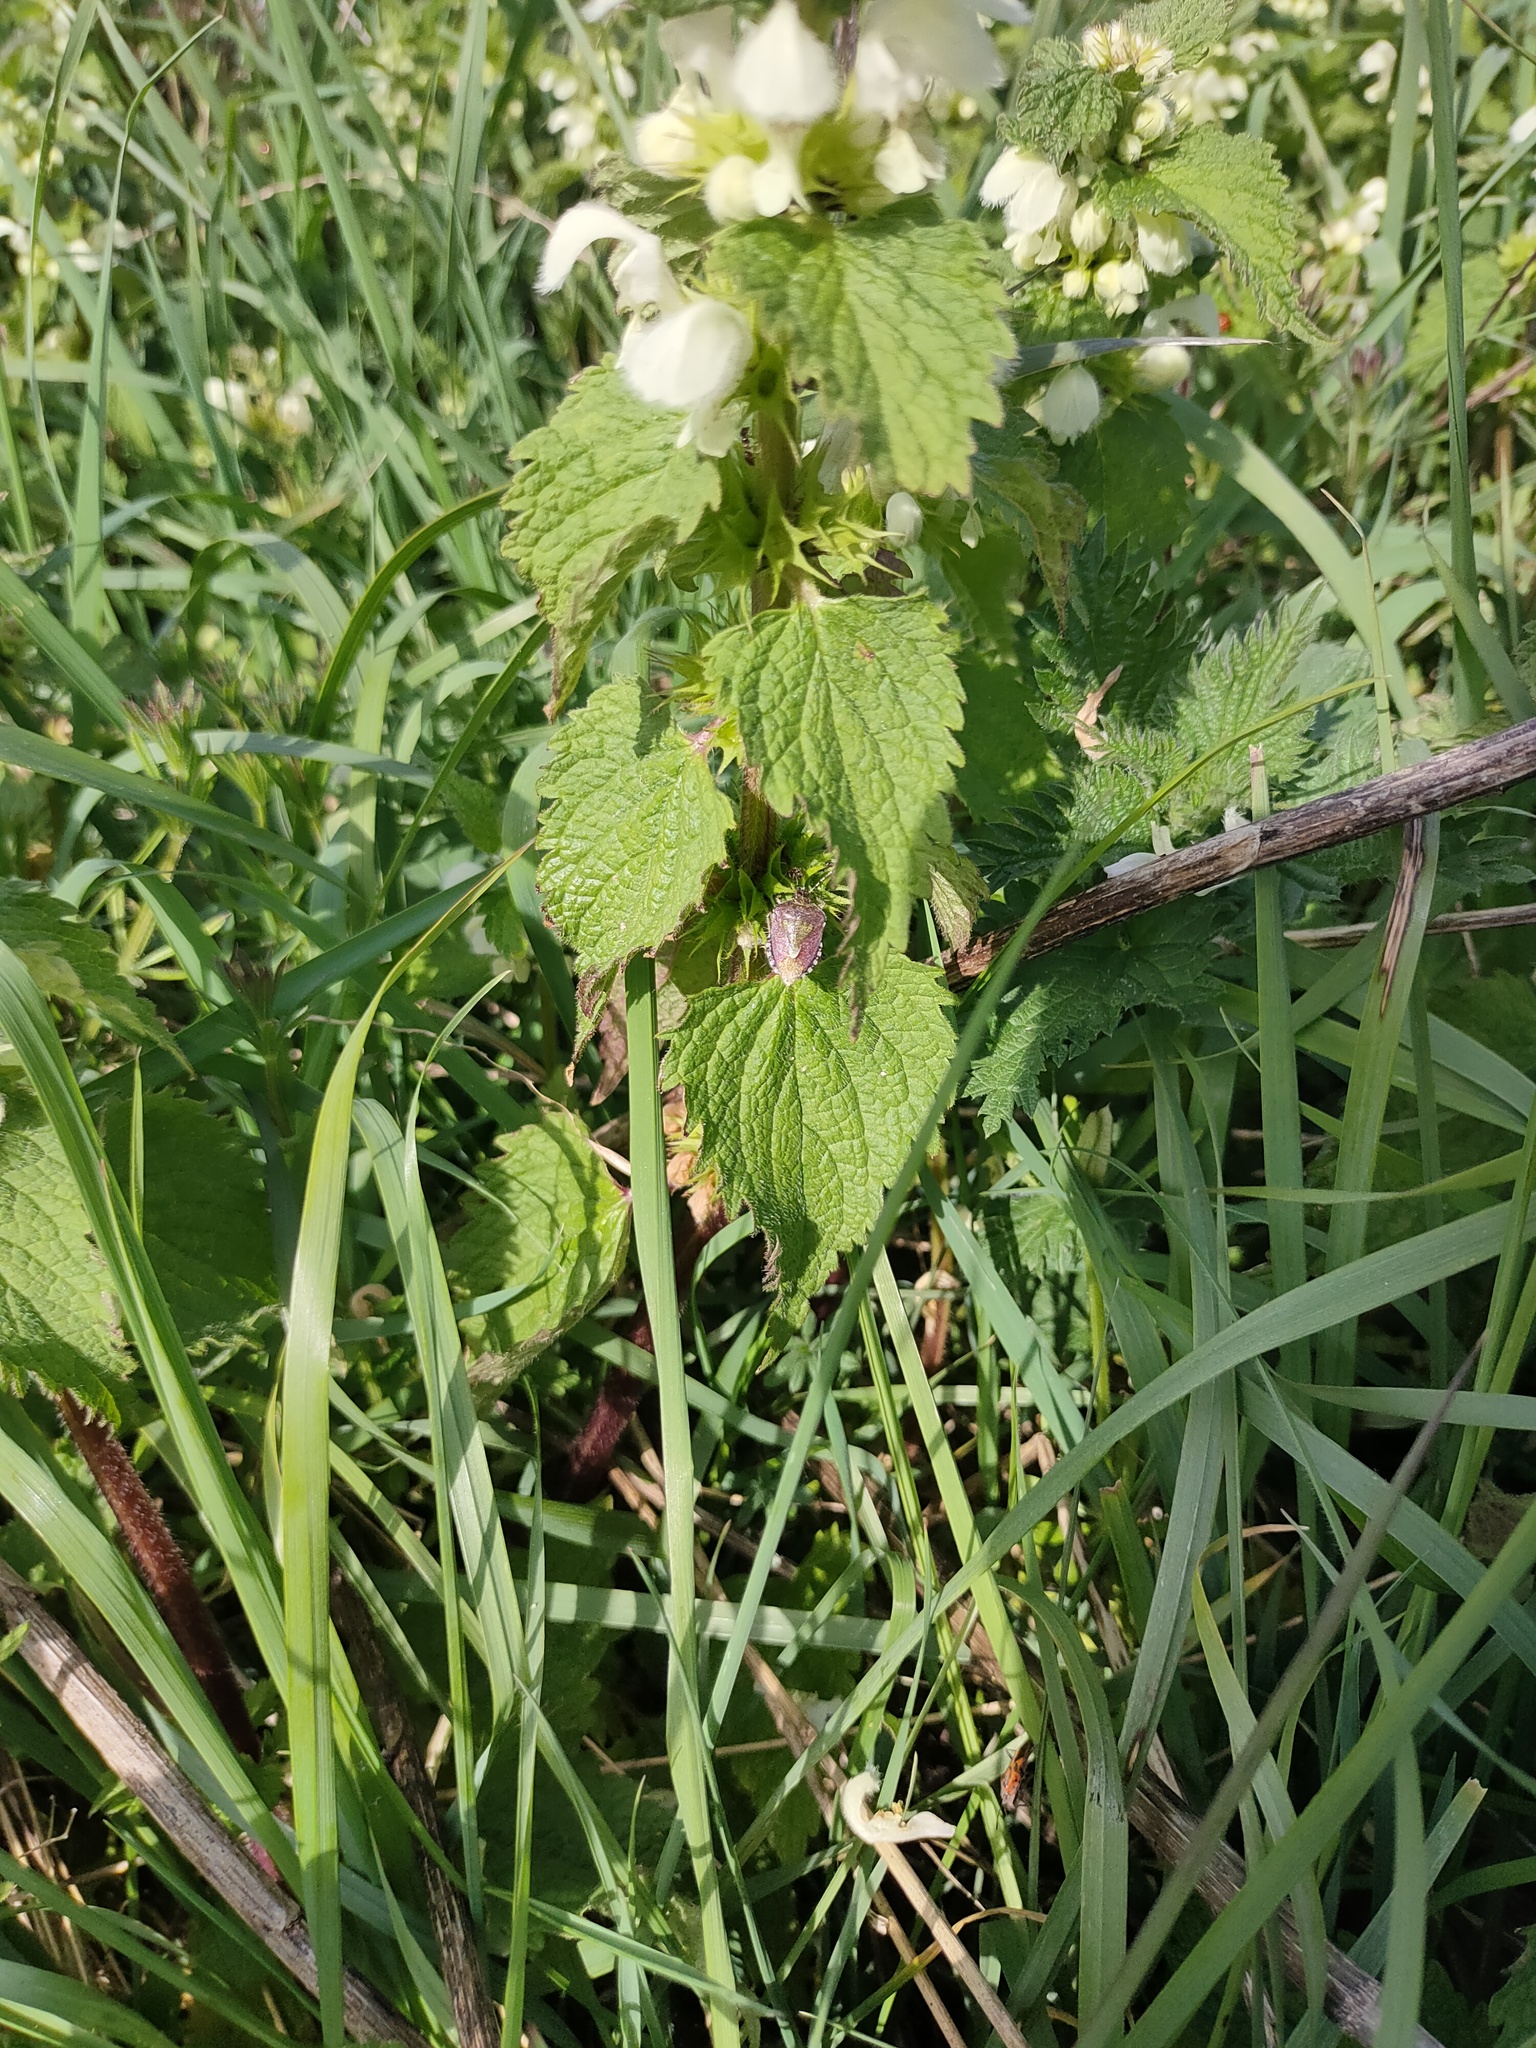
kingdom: Animalia
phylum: Arthropoda
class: Insecta
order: Hemiptera
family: Pentatomidae
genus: Dolycoris
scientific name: Dolycoris baccarum
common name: Sloe bug
